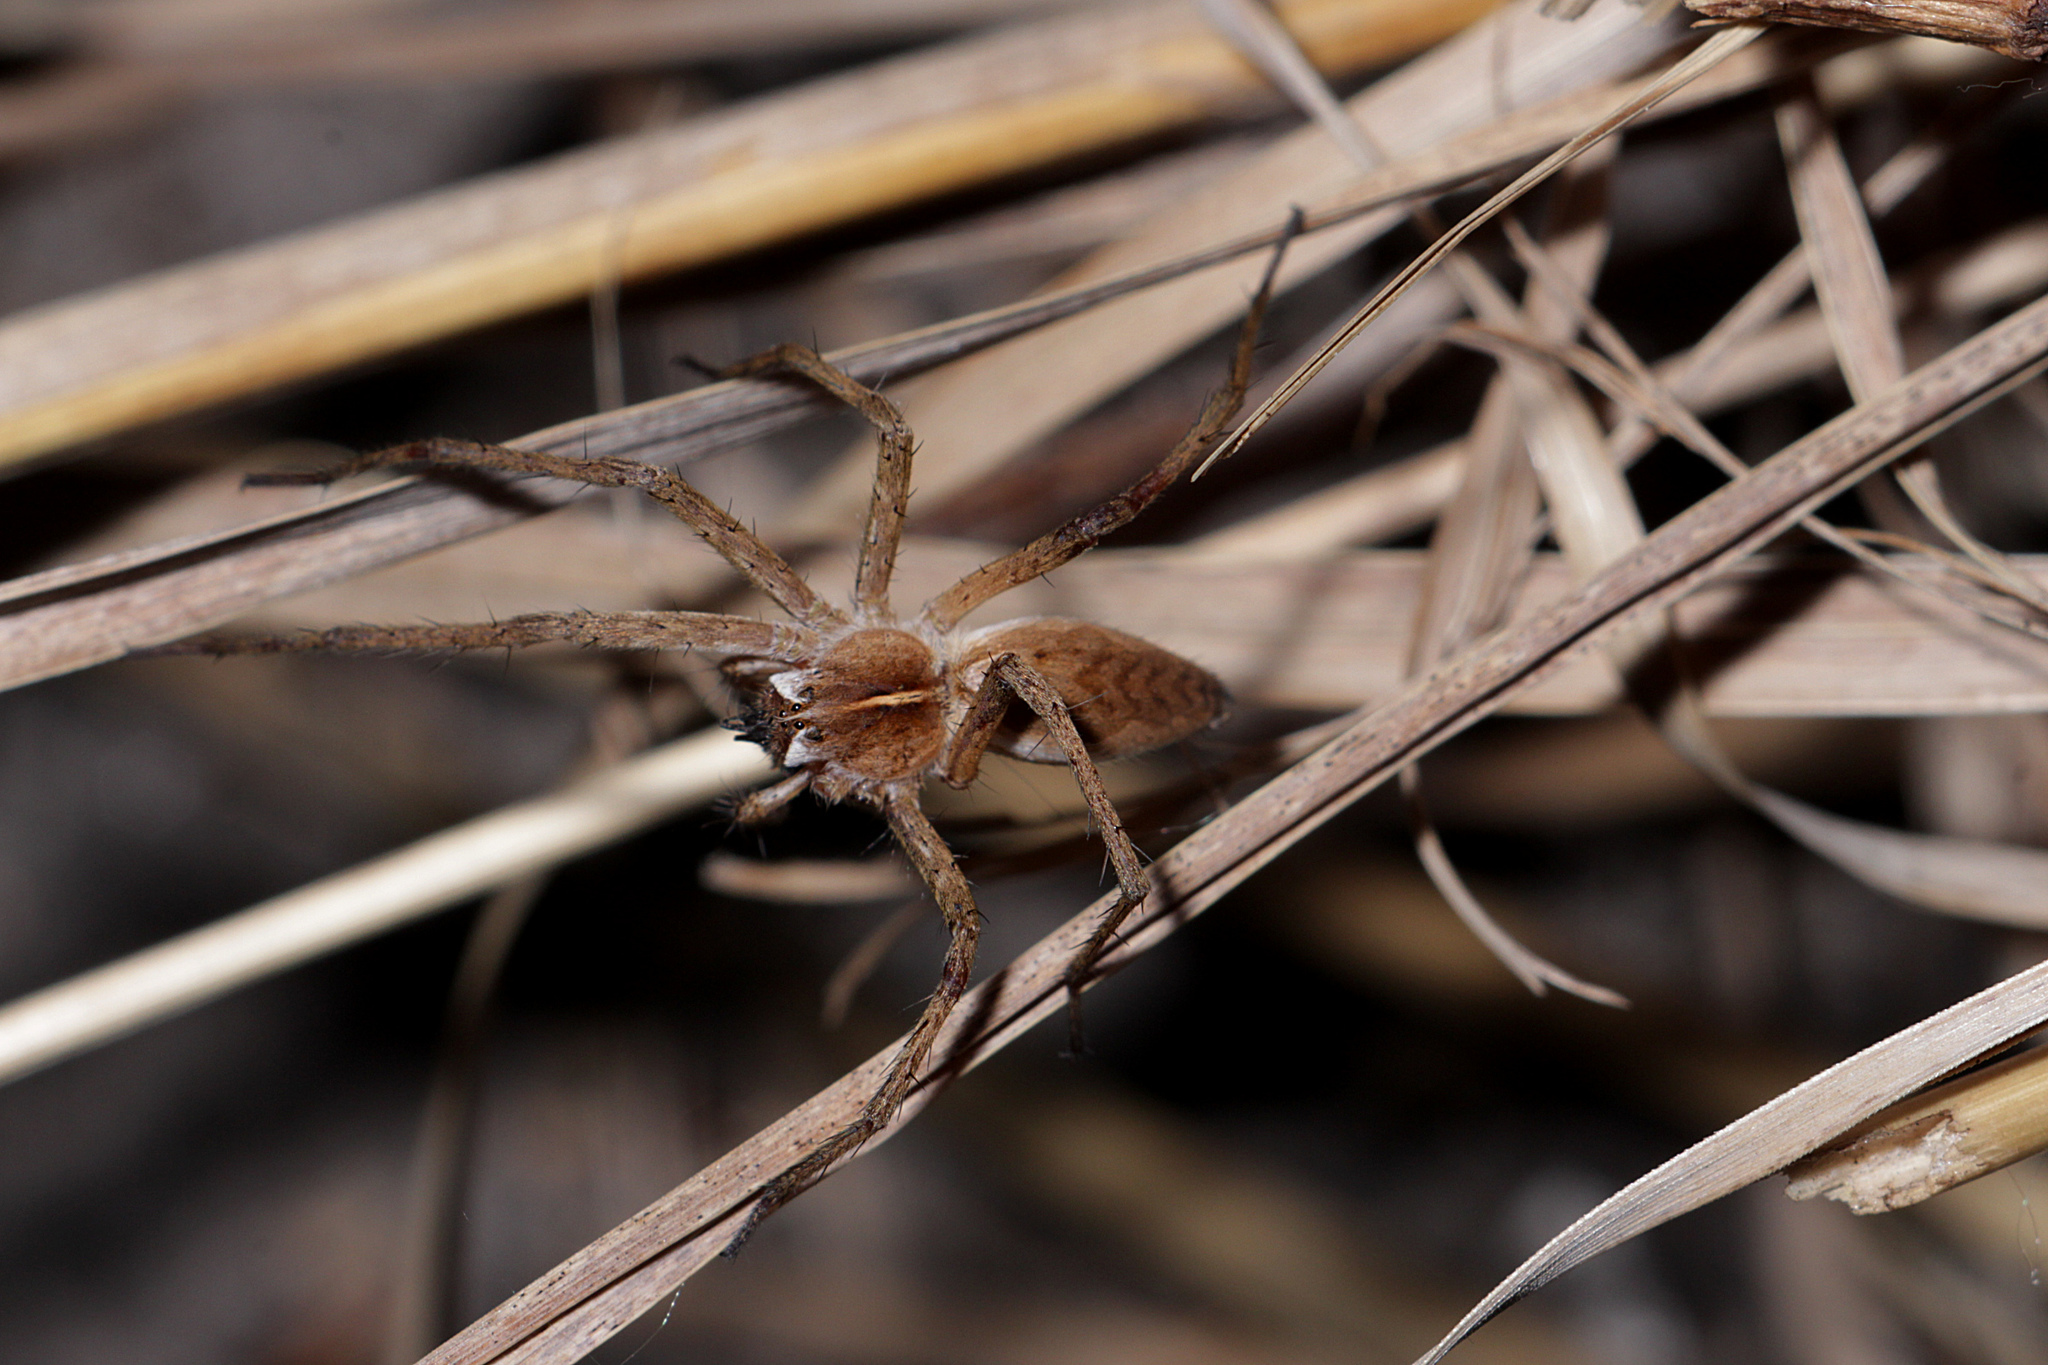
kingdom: Animalia
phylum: Arthropoda
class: Arachnida
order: Araneae
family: Pisauridae
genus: Pisaura
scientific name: Pisaura mirabilis
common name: Tent spider
